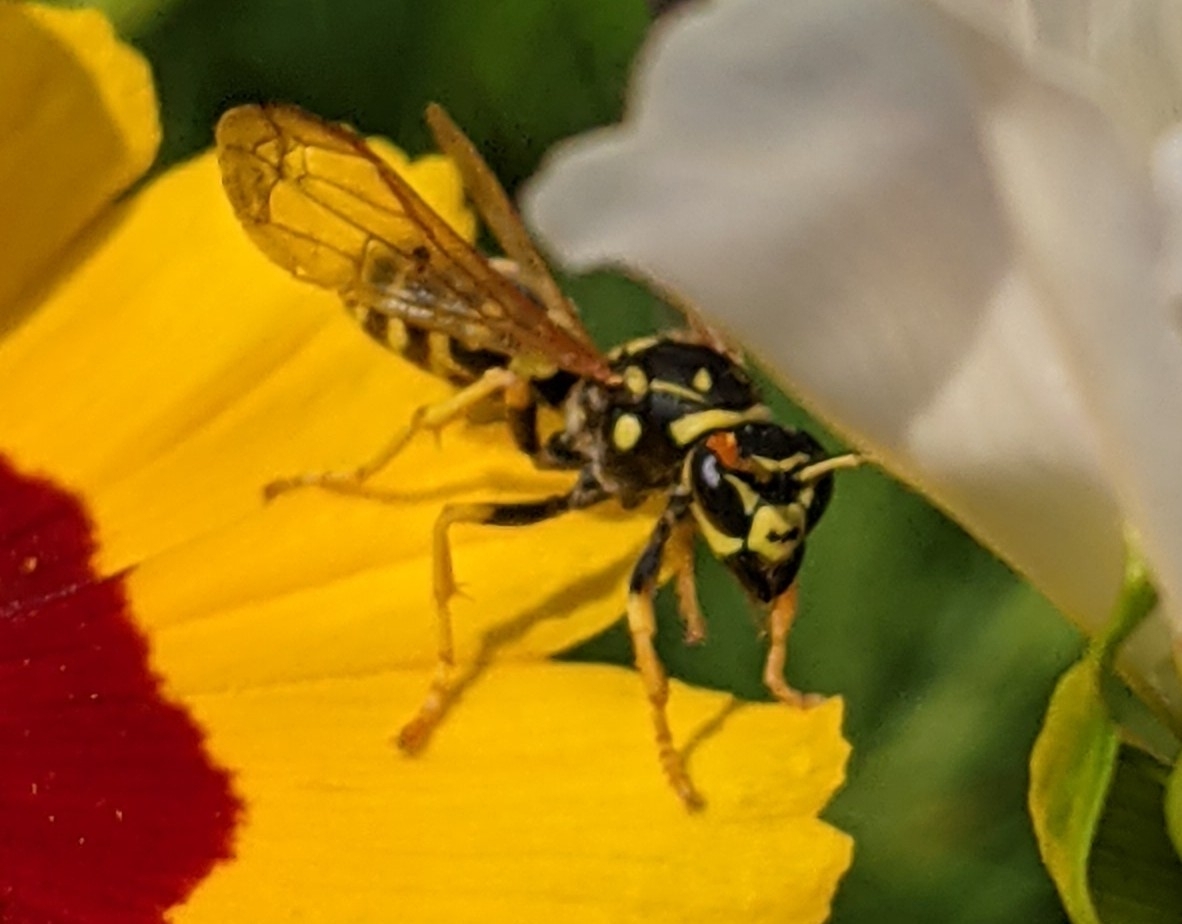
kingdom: Animalia
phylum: Arthropoda
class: Insecta
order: Hymenoptera
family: Eumenidae
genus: Polistes
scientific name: Polistes dominula
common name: Paper wasp
